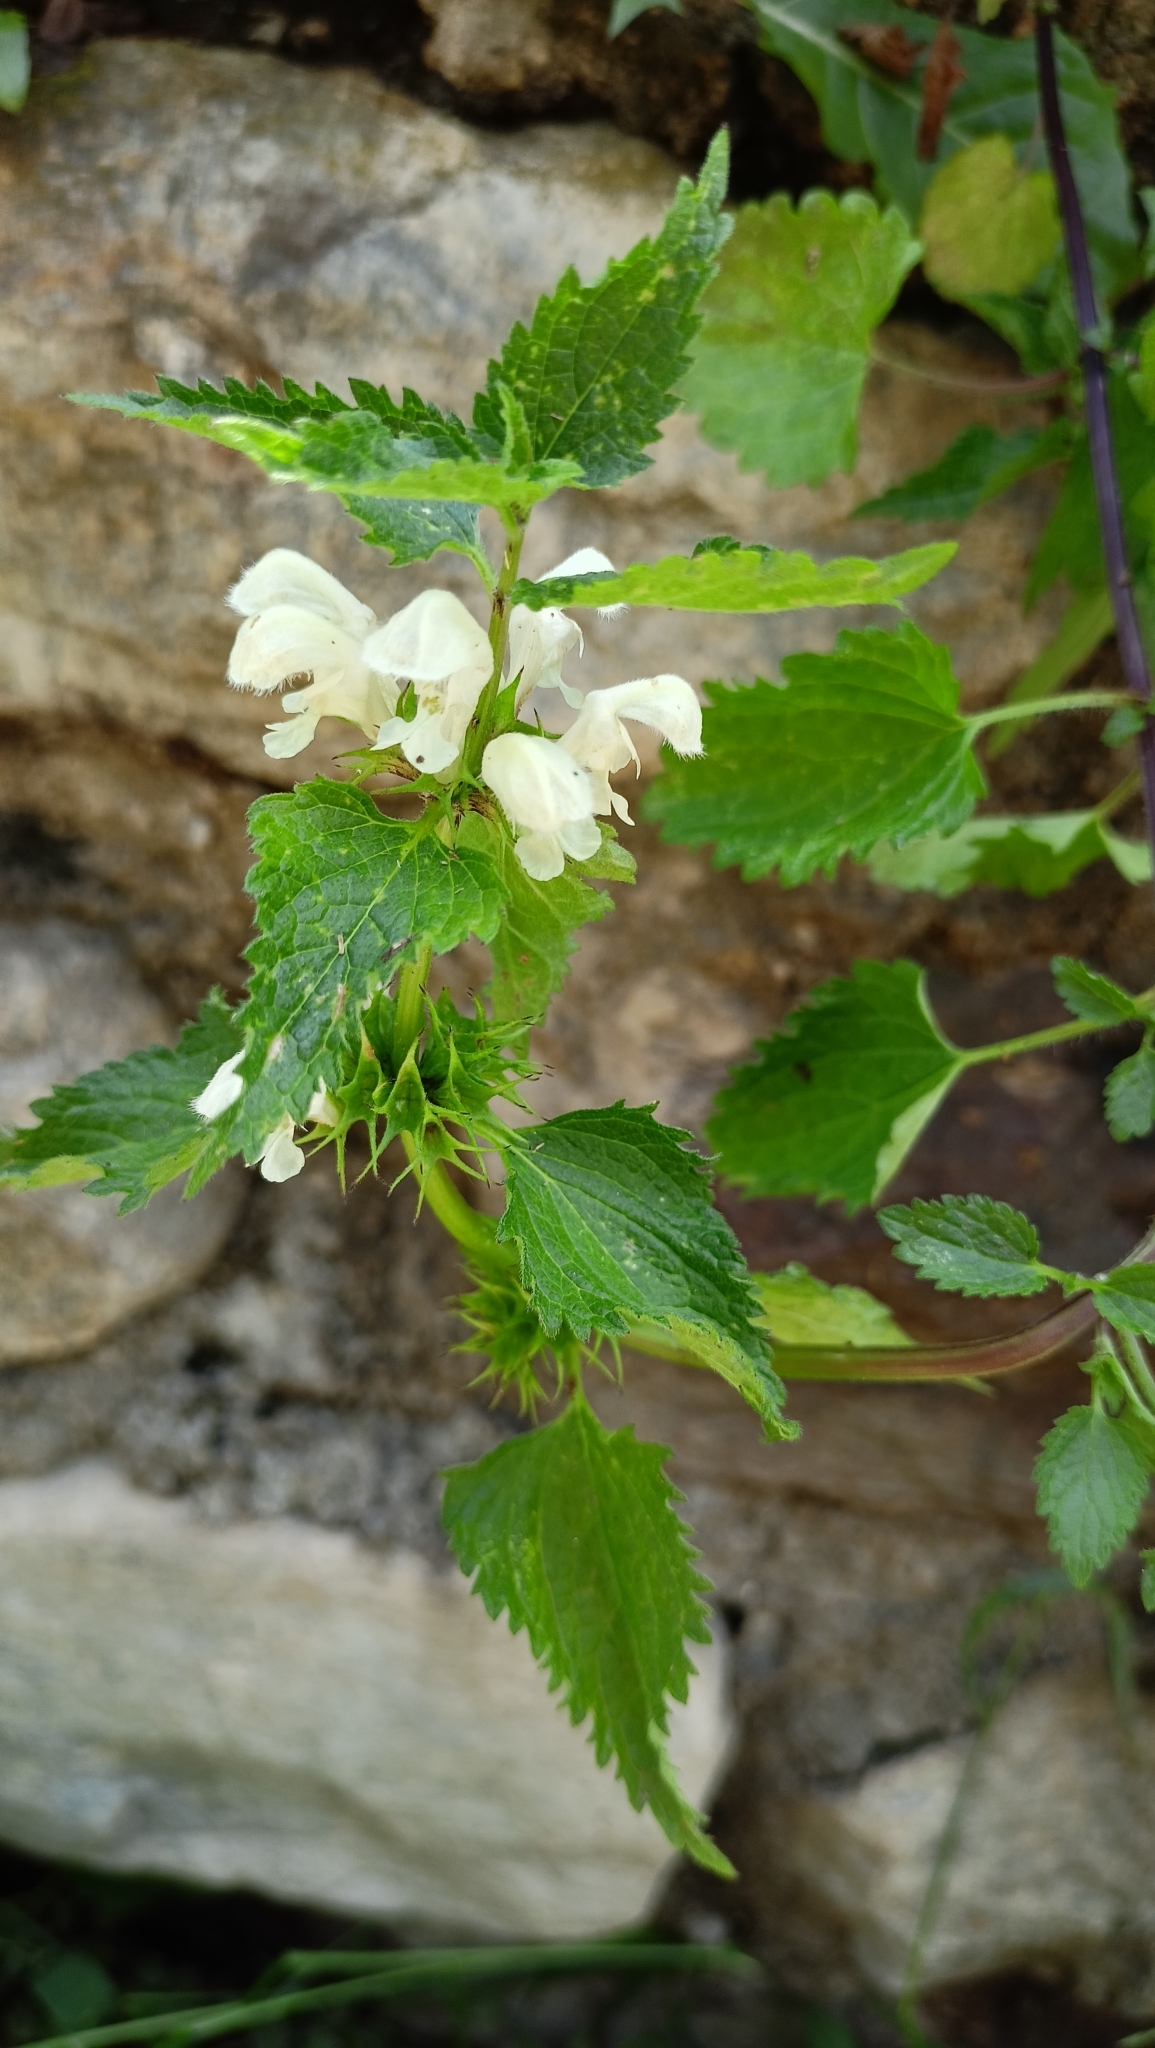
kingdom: Plantae
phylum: Tracheophyta
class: Magnoliopsida
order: Lamiales
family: Lamiaceae
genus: Lamium
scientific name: Lamium album
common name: White dead-nettle
